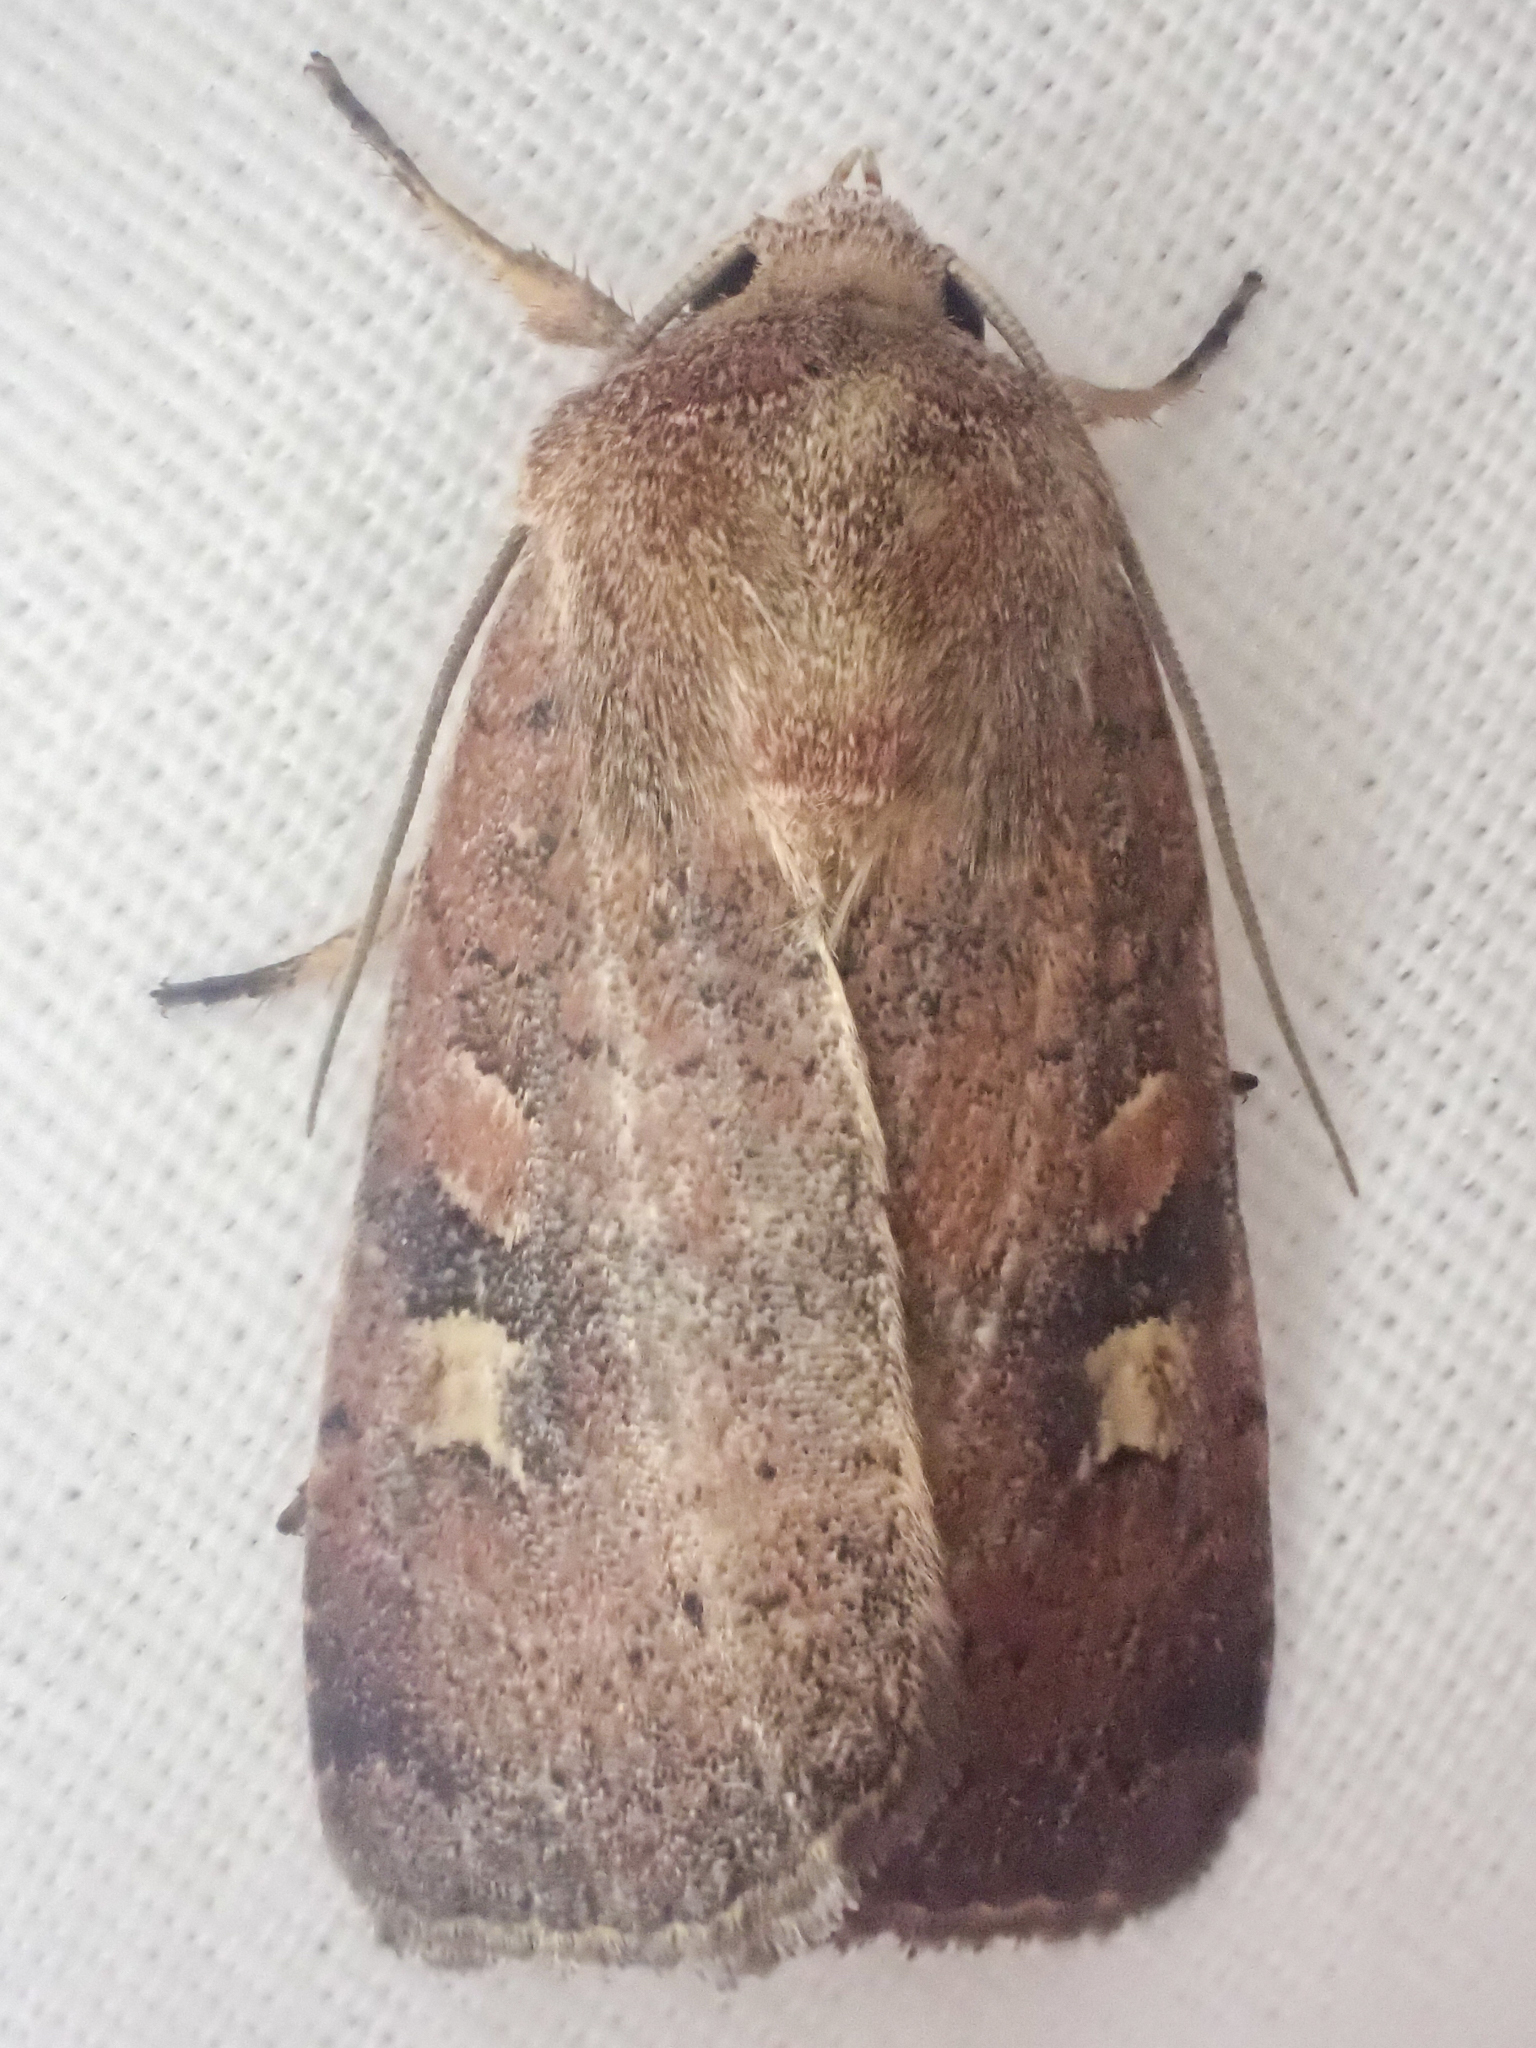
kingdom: Animalia
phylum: Arthropoda
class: Insecta
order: Lepidoptera
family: Noctuidae
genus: Xestia
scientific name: Xestia xanthographa
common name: Square-spot rustic
